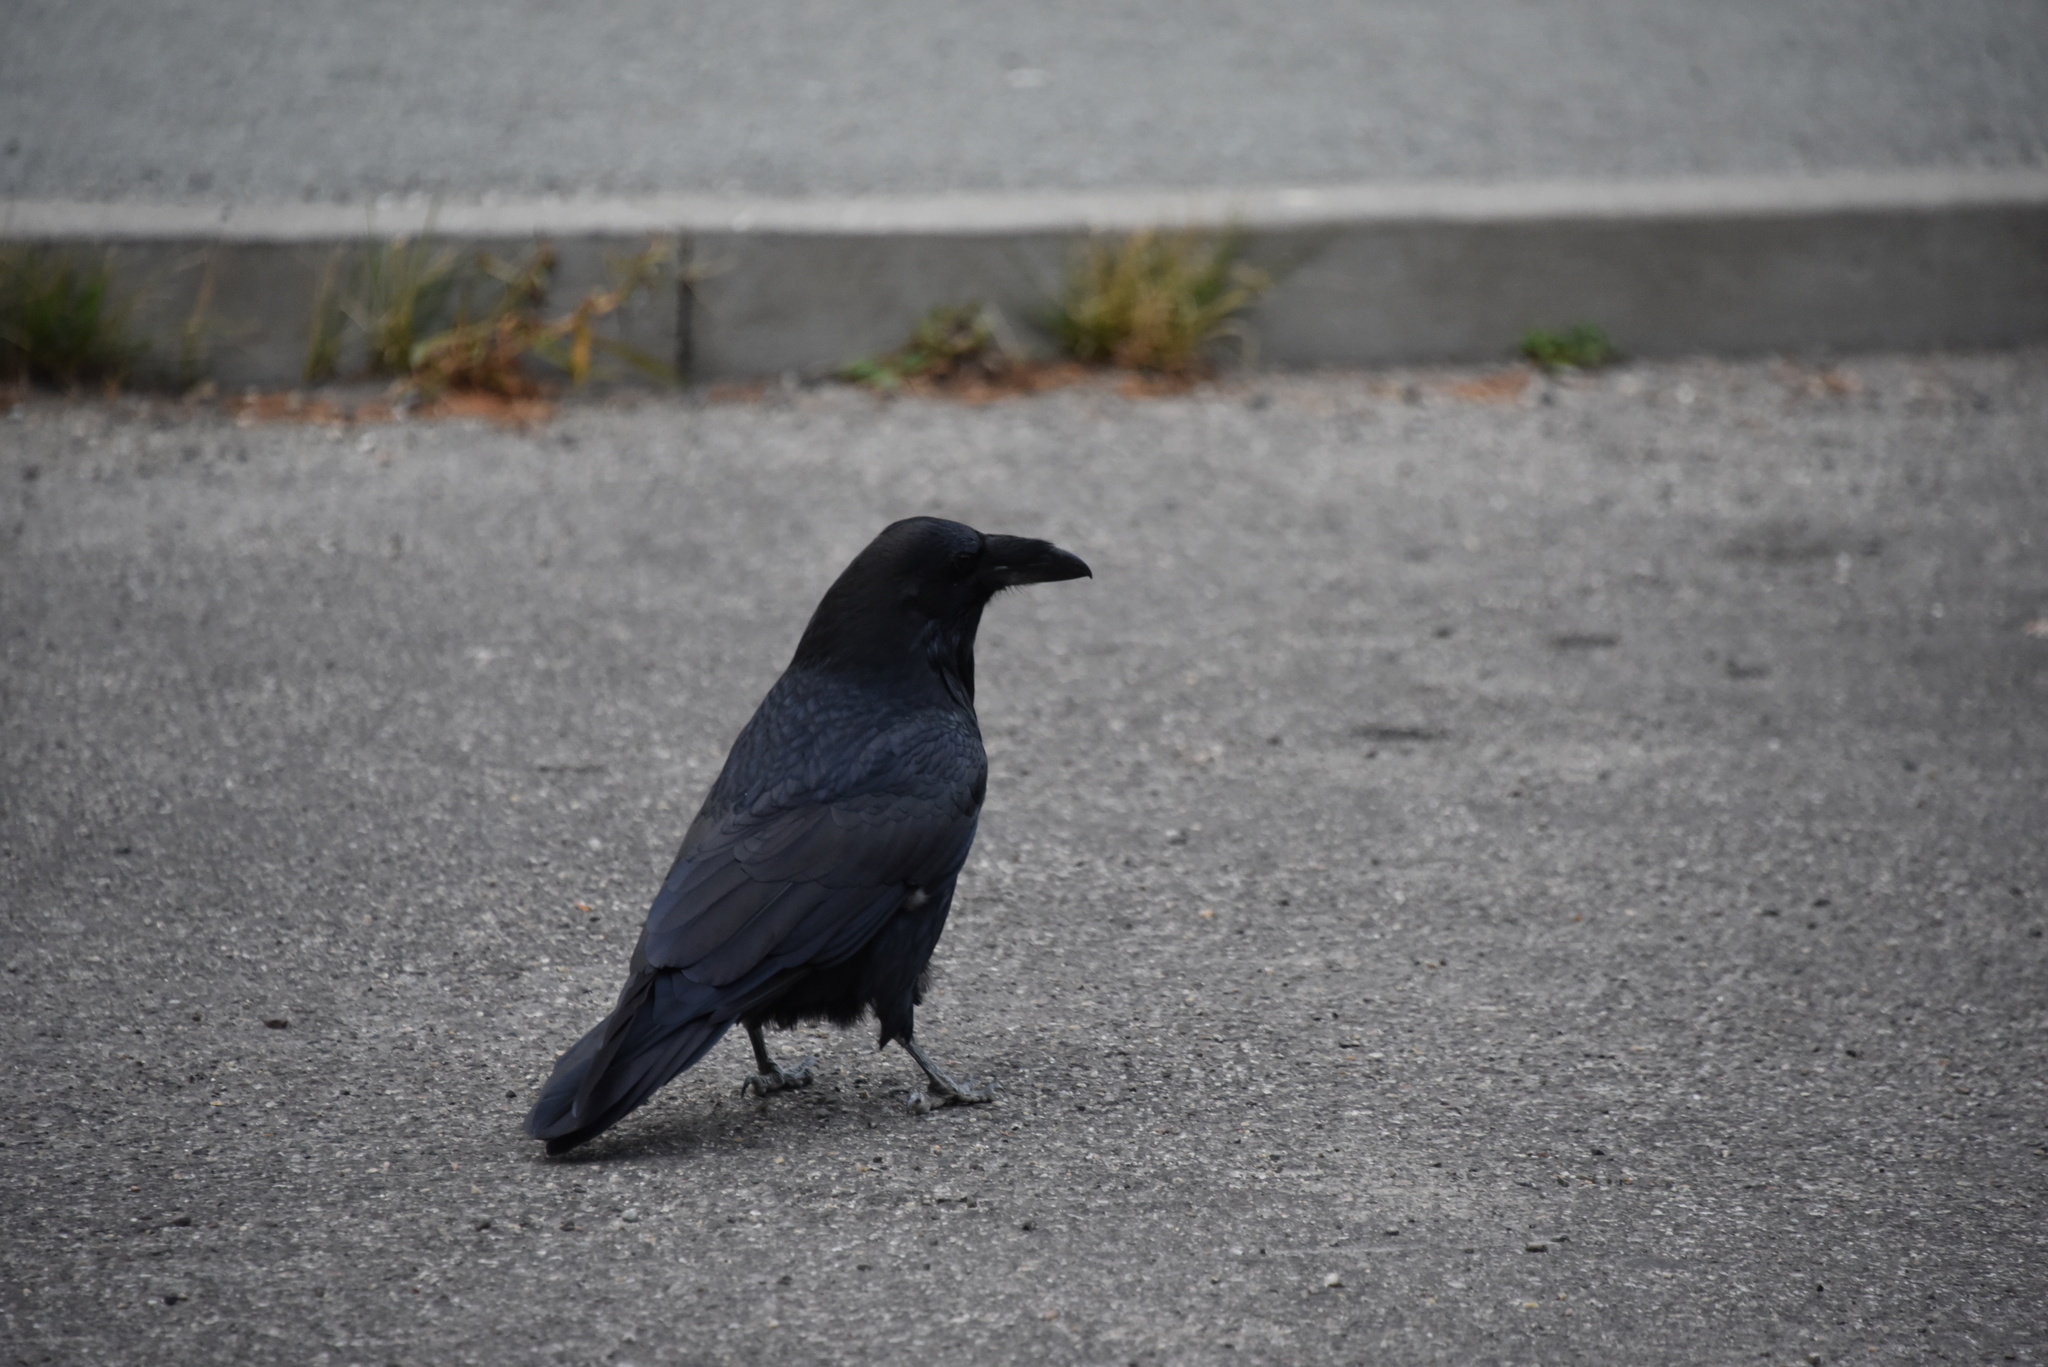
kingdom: Animalia
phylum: Chordata
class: Aves
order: Passeriformes
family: Corvidae
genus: Corvus
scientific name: Corvus corax
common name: Common raven
